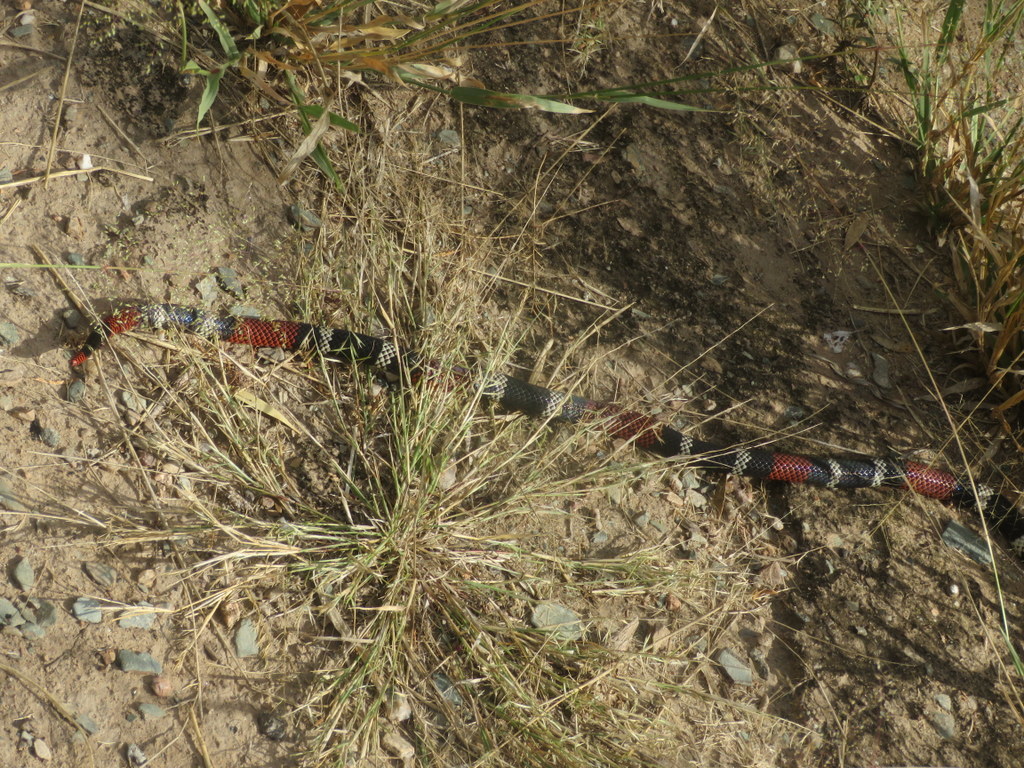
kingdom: Animalia
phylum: Chordata
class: Squamata
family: Elapidae
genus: Micrurus
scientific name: Micrurus pyrrhocryptus
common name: Argentinian coral snake
